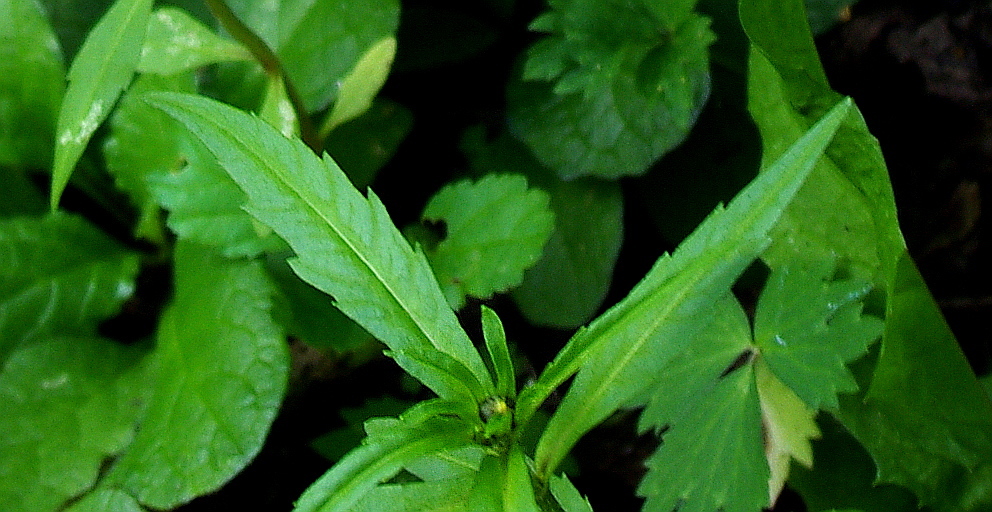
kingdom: Plantae
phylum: Tracheophyta
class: Magnoliopsida
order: Asterales
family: Asteraceae
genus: Bidens
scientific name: Bidens cernua
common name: Nodding bur-marigold
